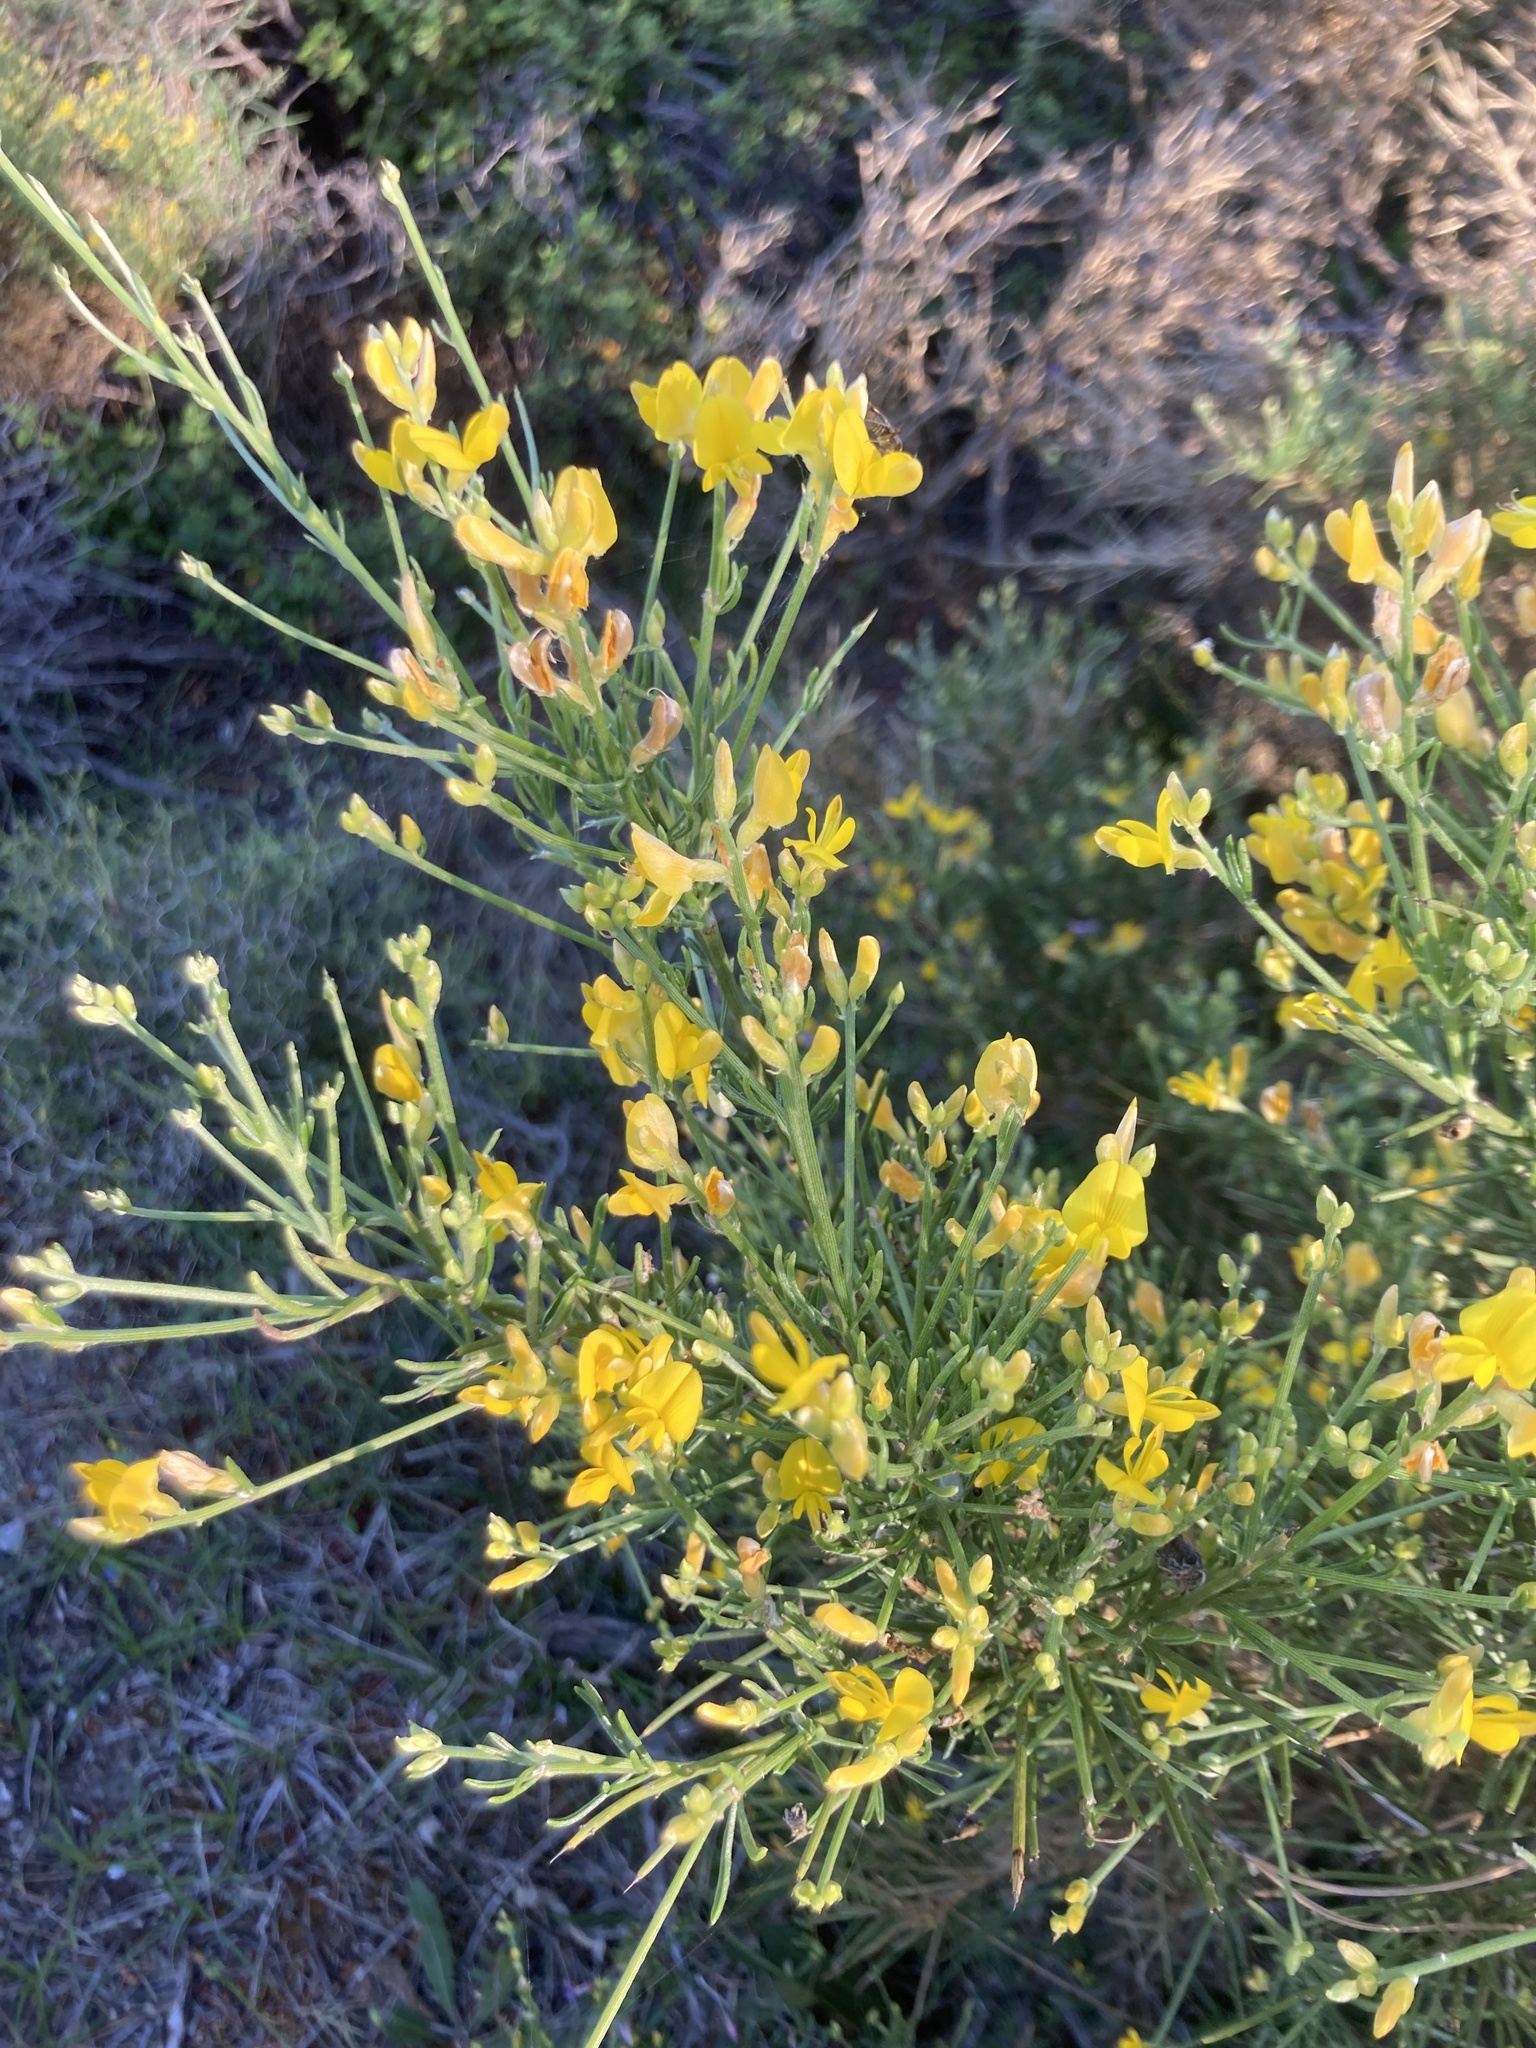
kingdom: Plantae
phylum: Tracheophyta
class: Magnoliopsida
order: Fabales
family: Fabaceae
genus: Genista
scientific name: Genista acanthoclada
